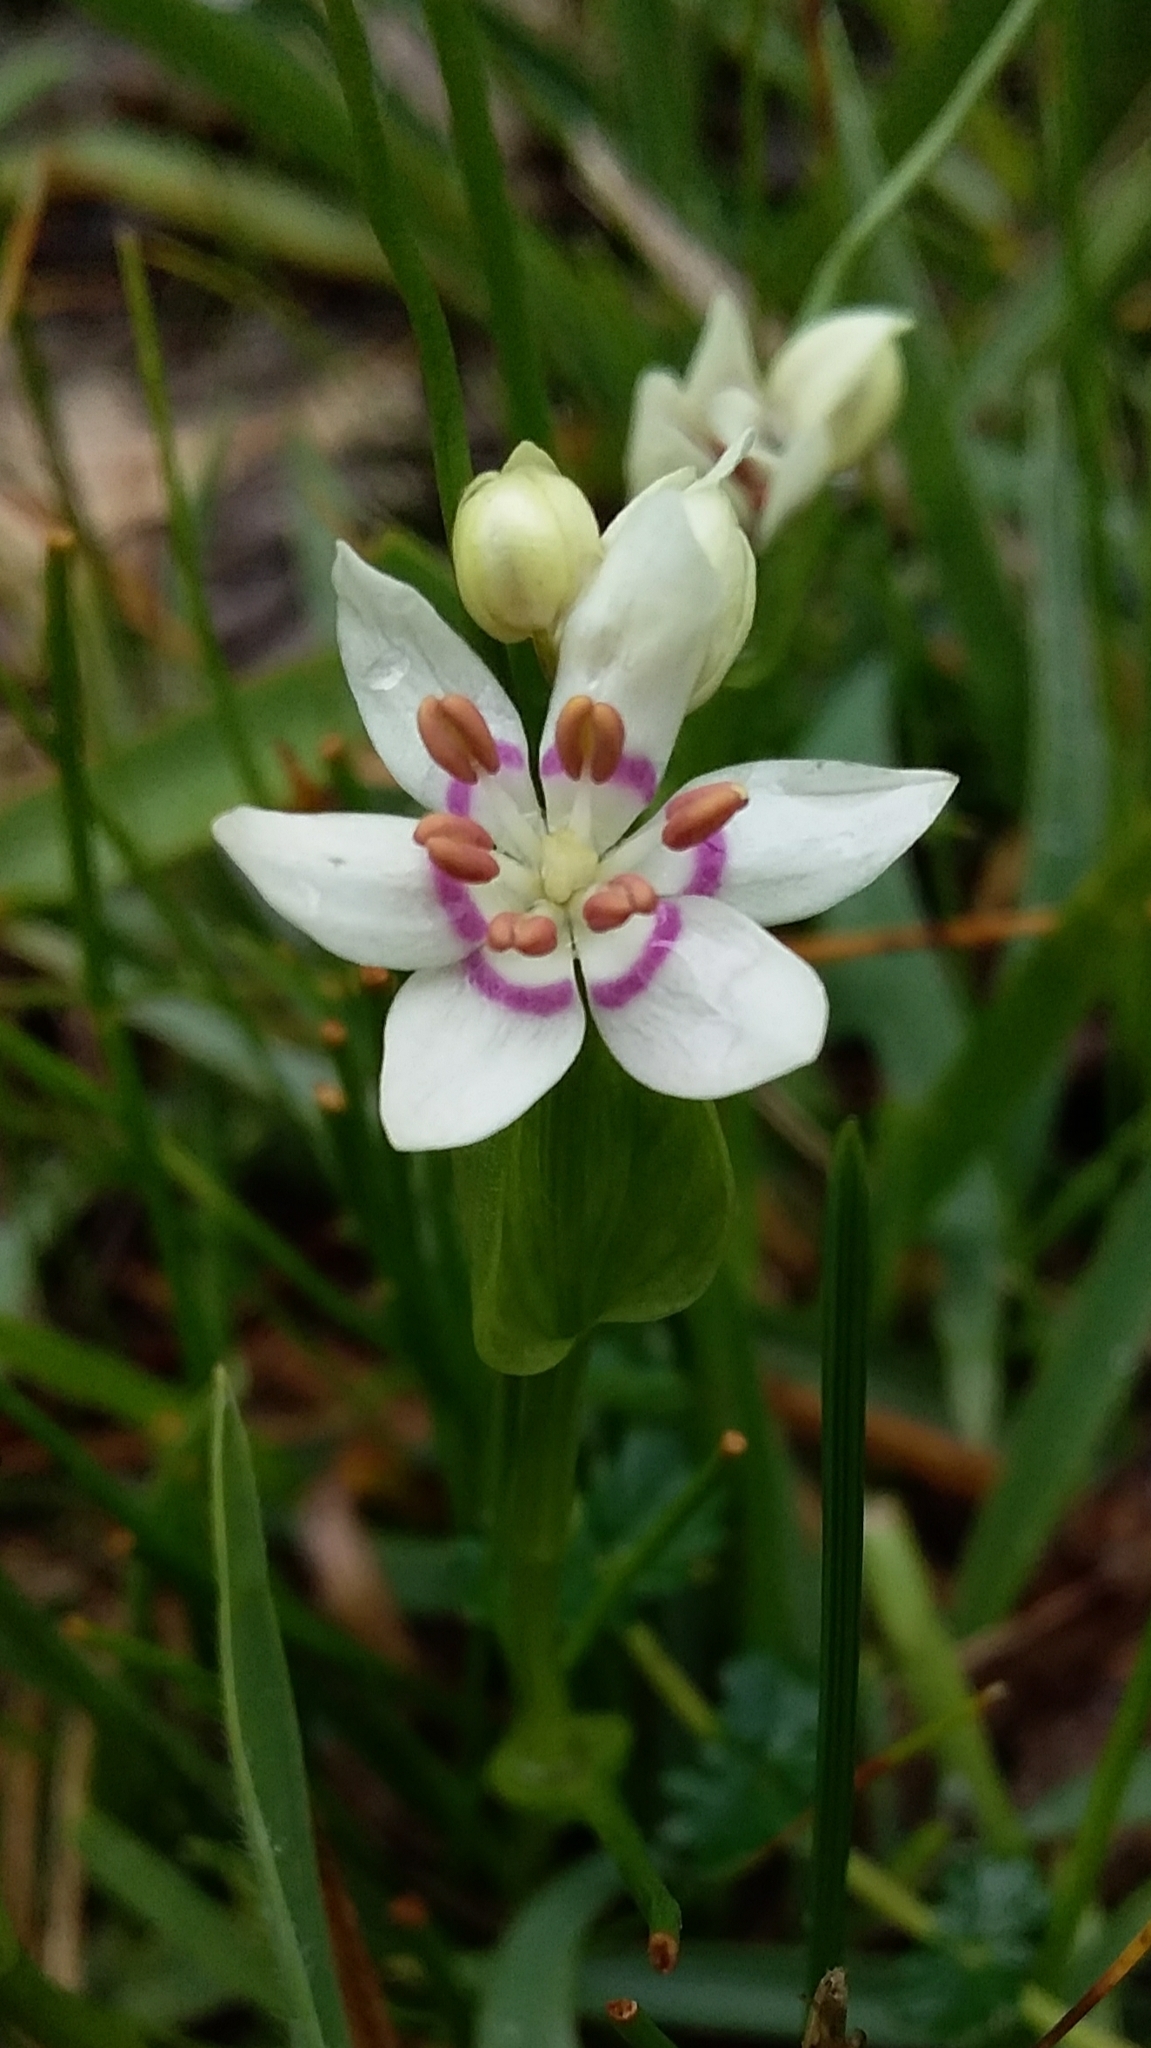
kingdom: Plantae
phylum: Tracheophyta
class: Liliopsida
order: Liliales
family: Colchicaceae
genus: Wurmbea
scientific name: Wurmbea dioica
